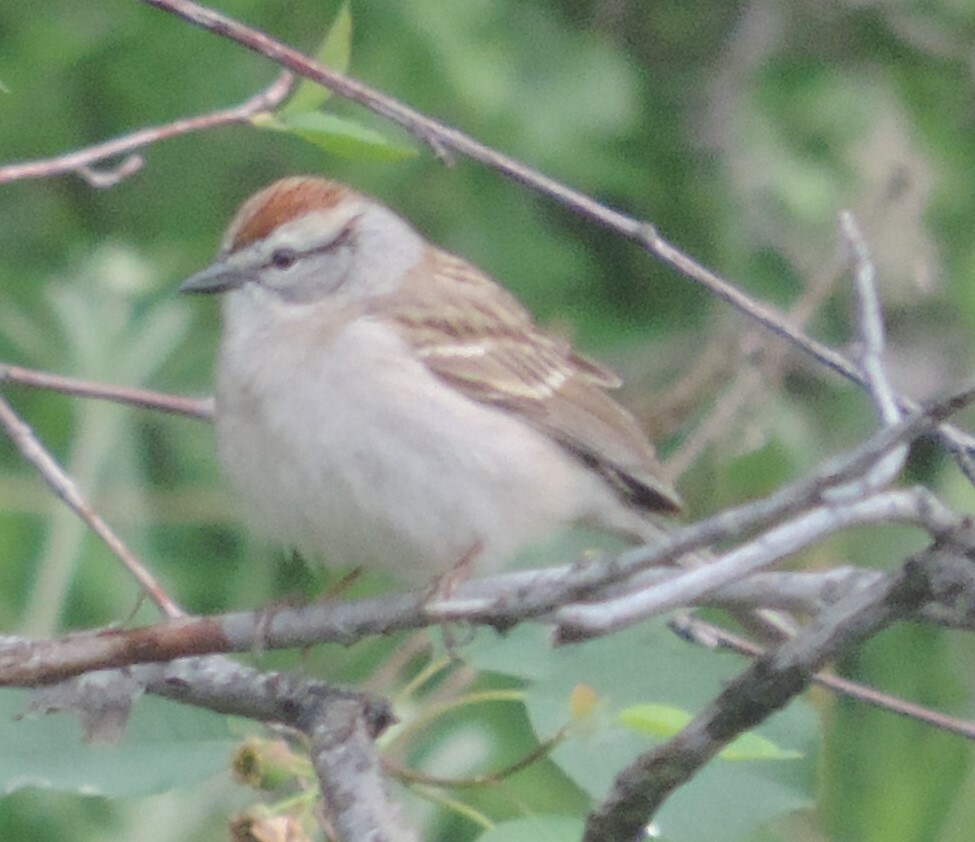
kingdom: Animalia
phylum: Chordata
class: Aves
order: Passeriformes
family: Passerellidae
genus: Spizella
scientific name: Spizella passerina
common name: Chipping sparrow
